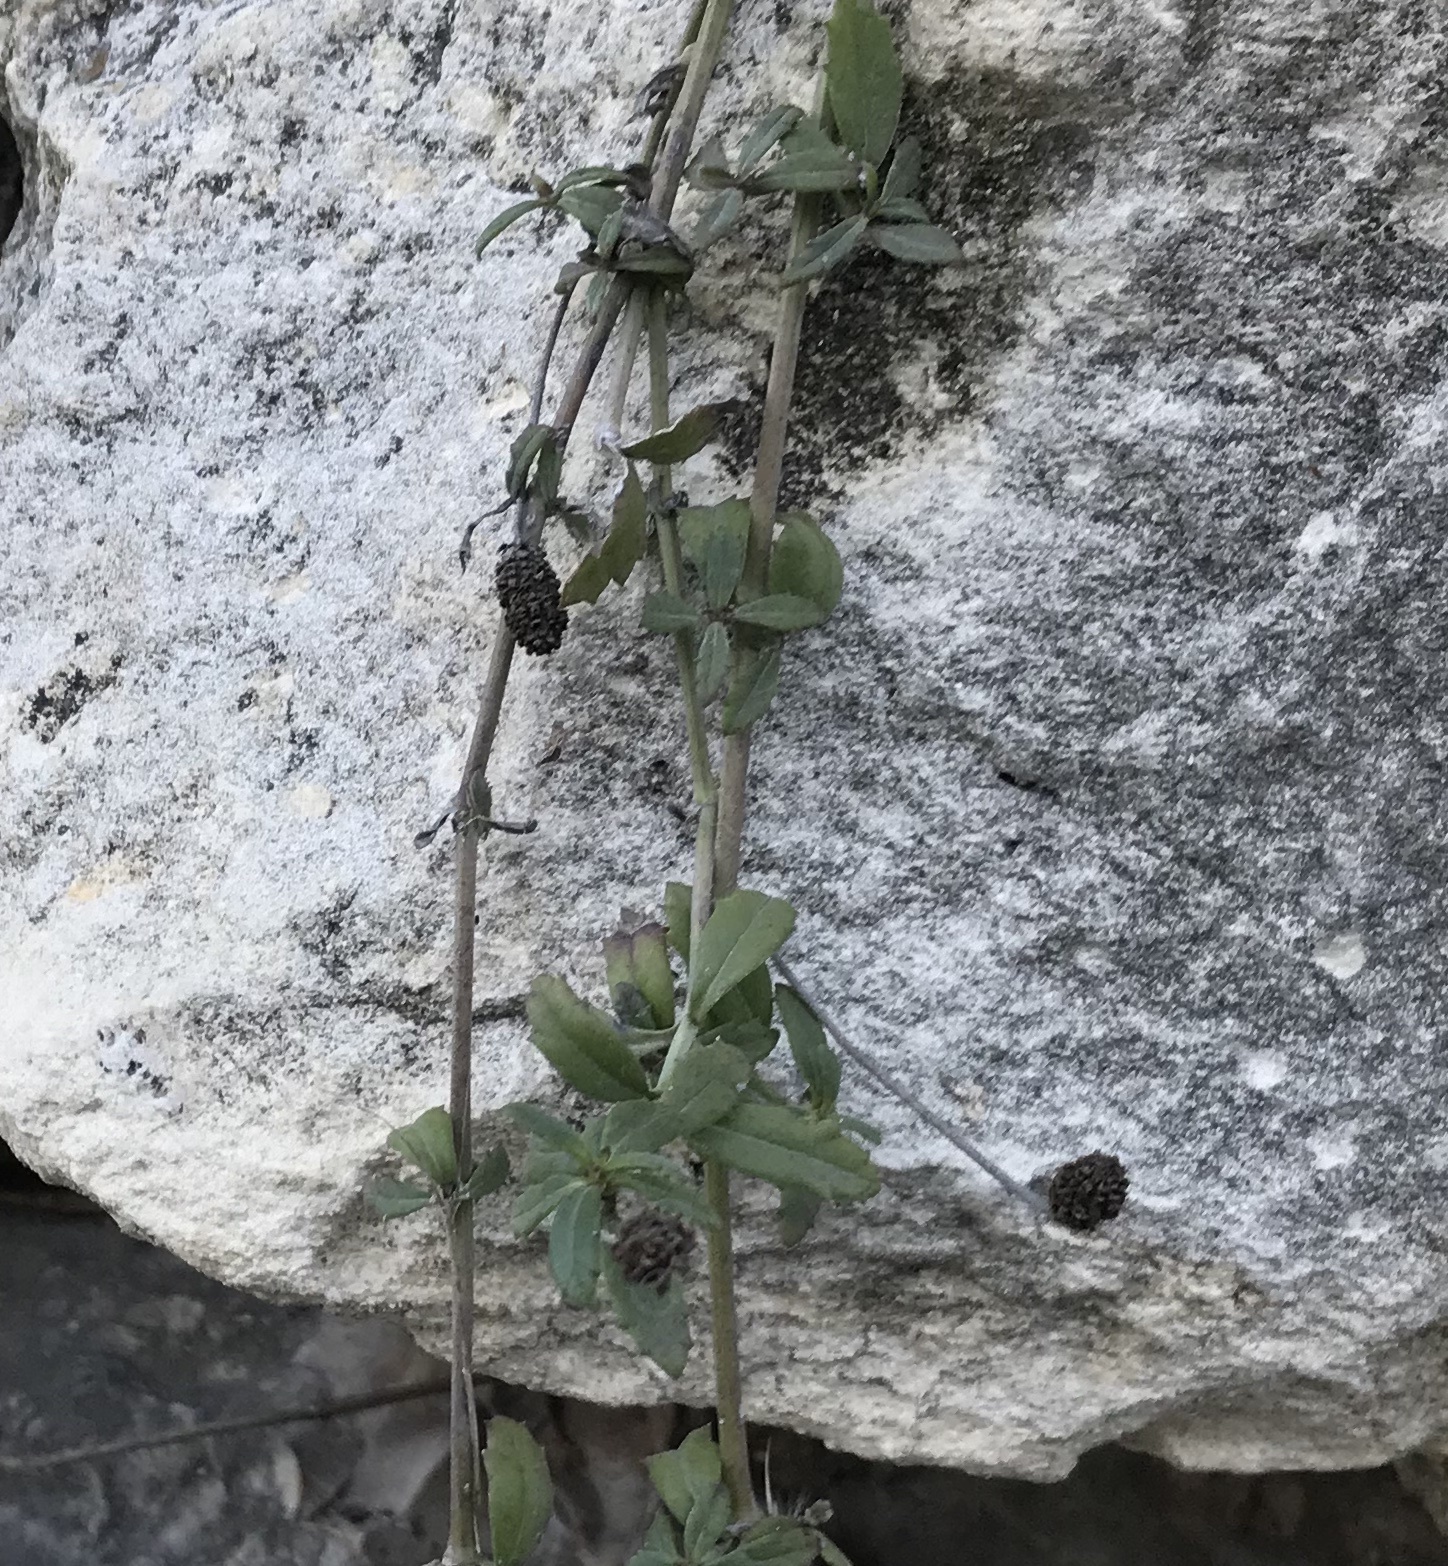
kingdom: Plantae
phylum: Tracheophyta
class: Magnoliopsida
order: Lamiales
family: Verbenaceae
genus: Phyla
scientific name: Phyla nodiflora
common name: Frogfruit
